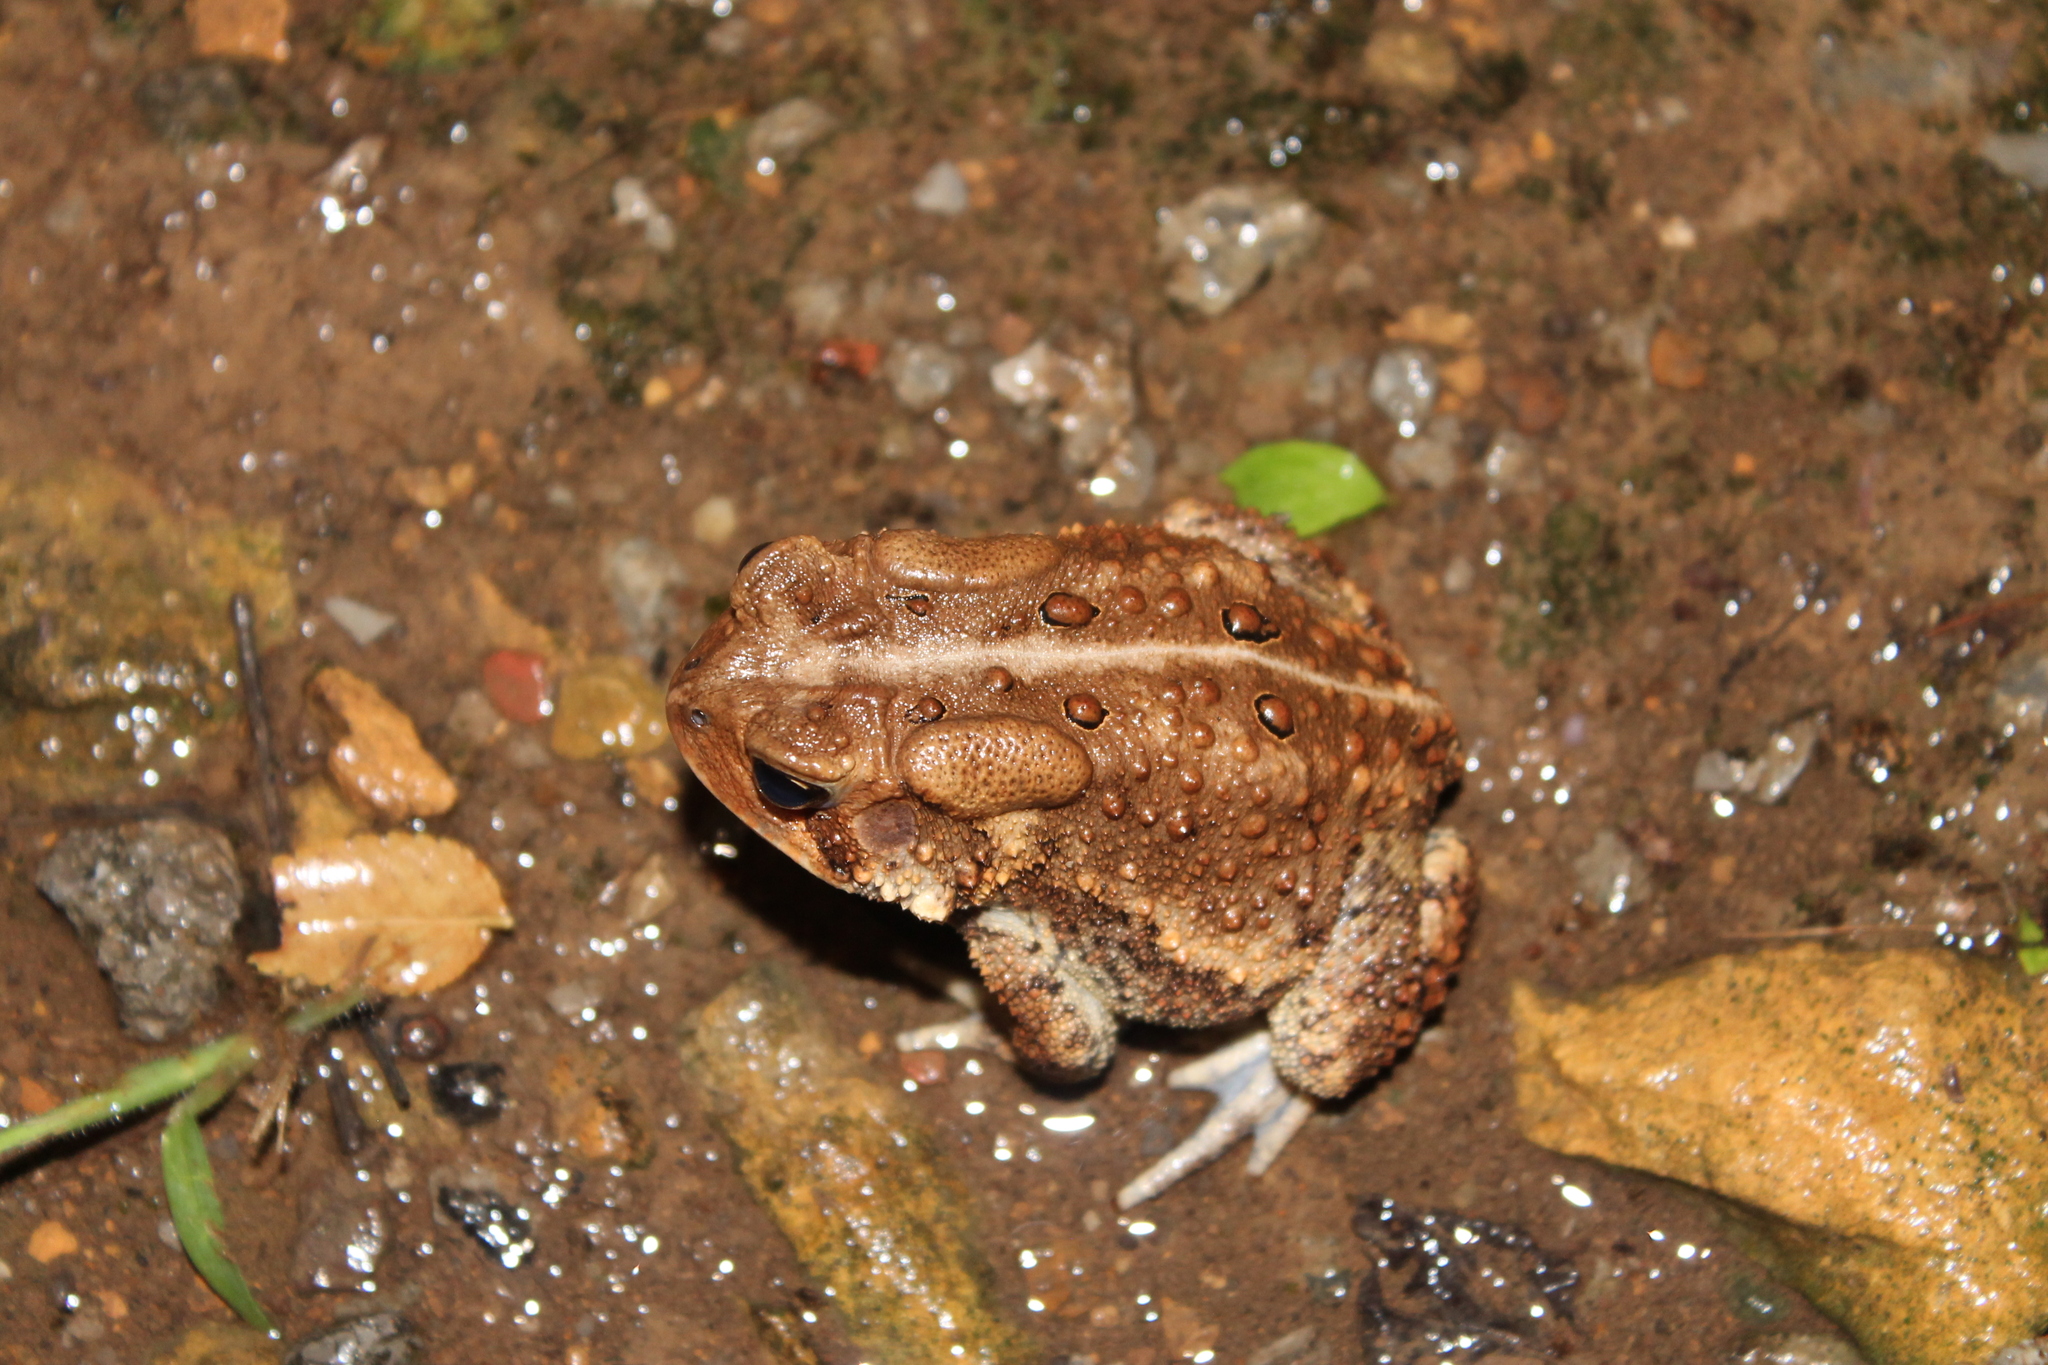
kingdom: Animalia
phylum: Chordata
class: Amphibia
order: Anura
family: Bufonidae
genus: Anaxyrus
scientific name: Anaxyrus americanus
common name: American toad
